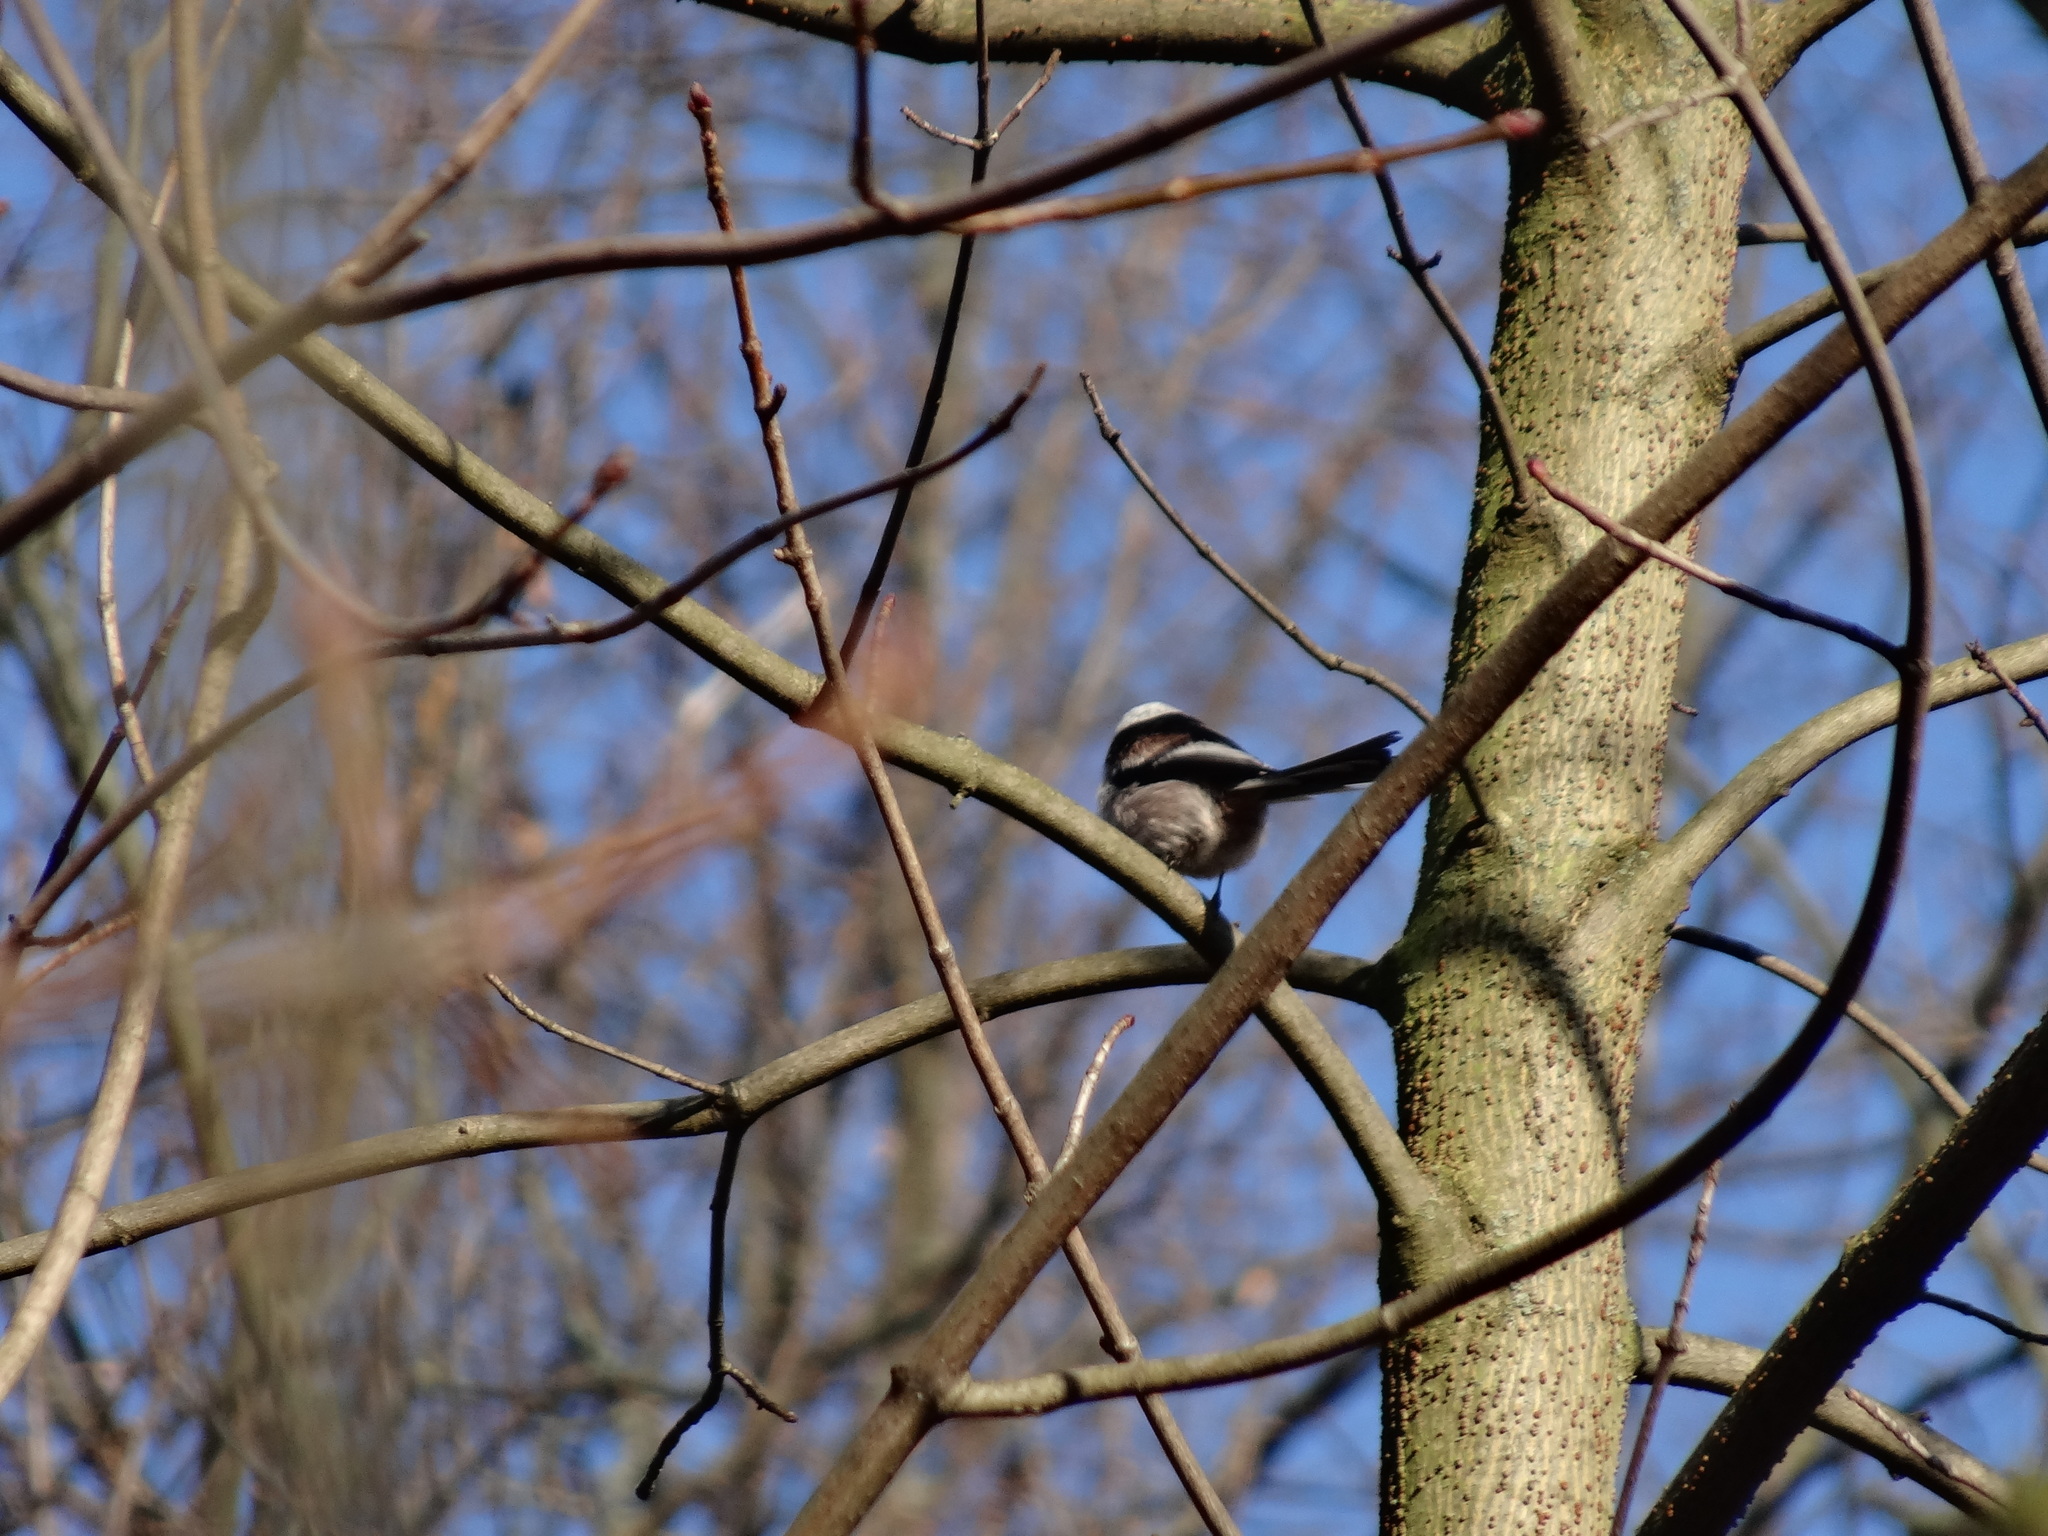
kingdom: Animalia
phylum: Chordata
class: Aves
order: Passeriformes
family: Aegithalidae
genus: Aegithalos
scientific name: Aegithalos caudatus
